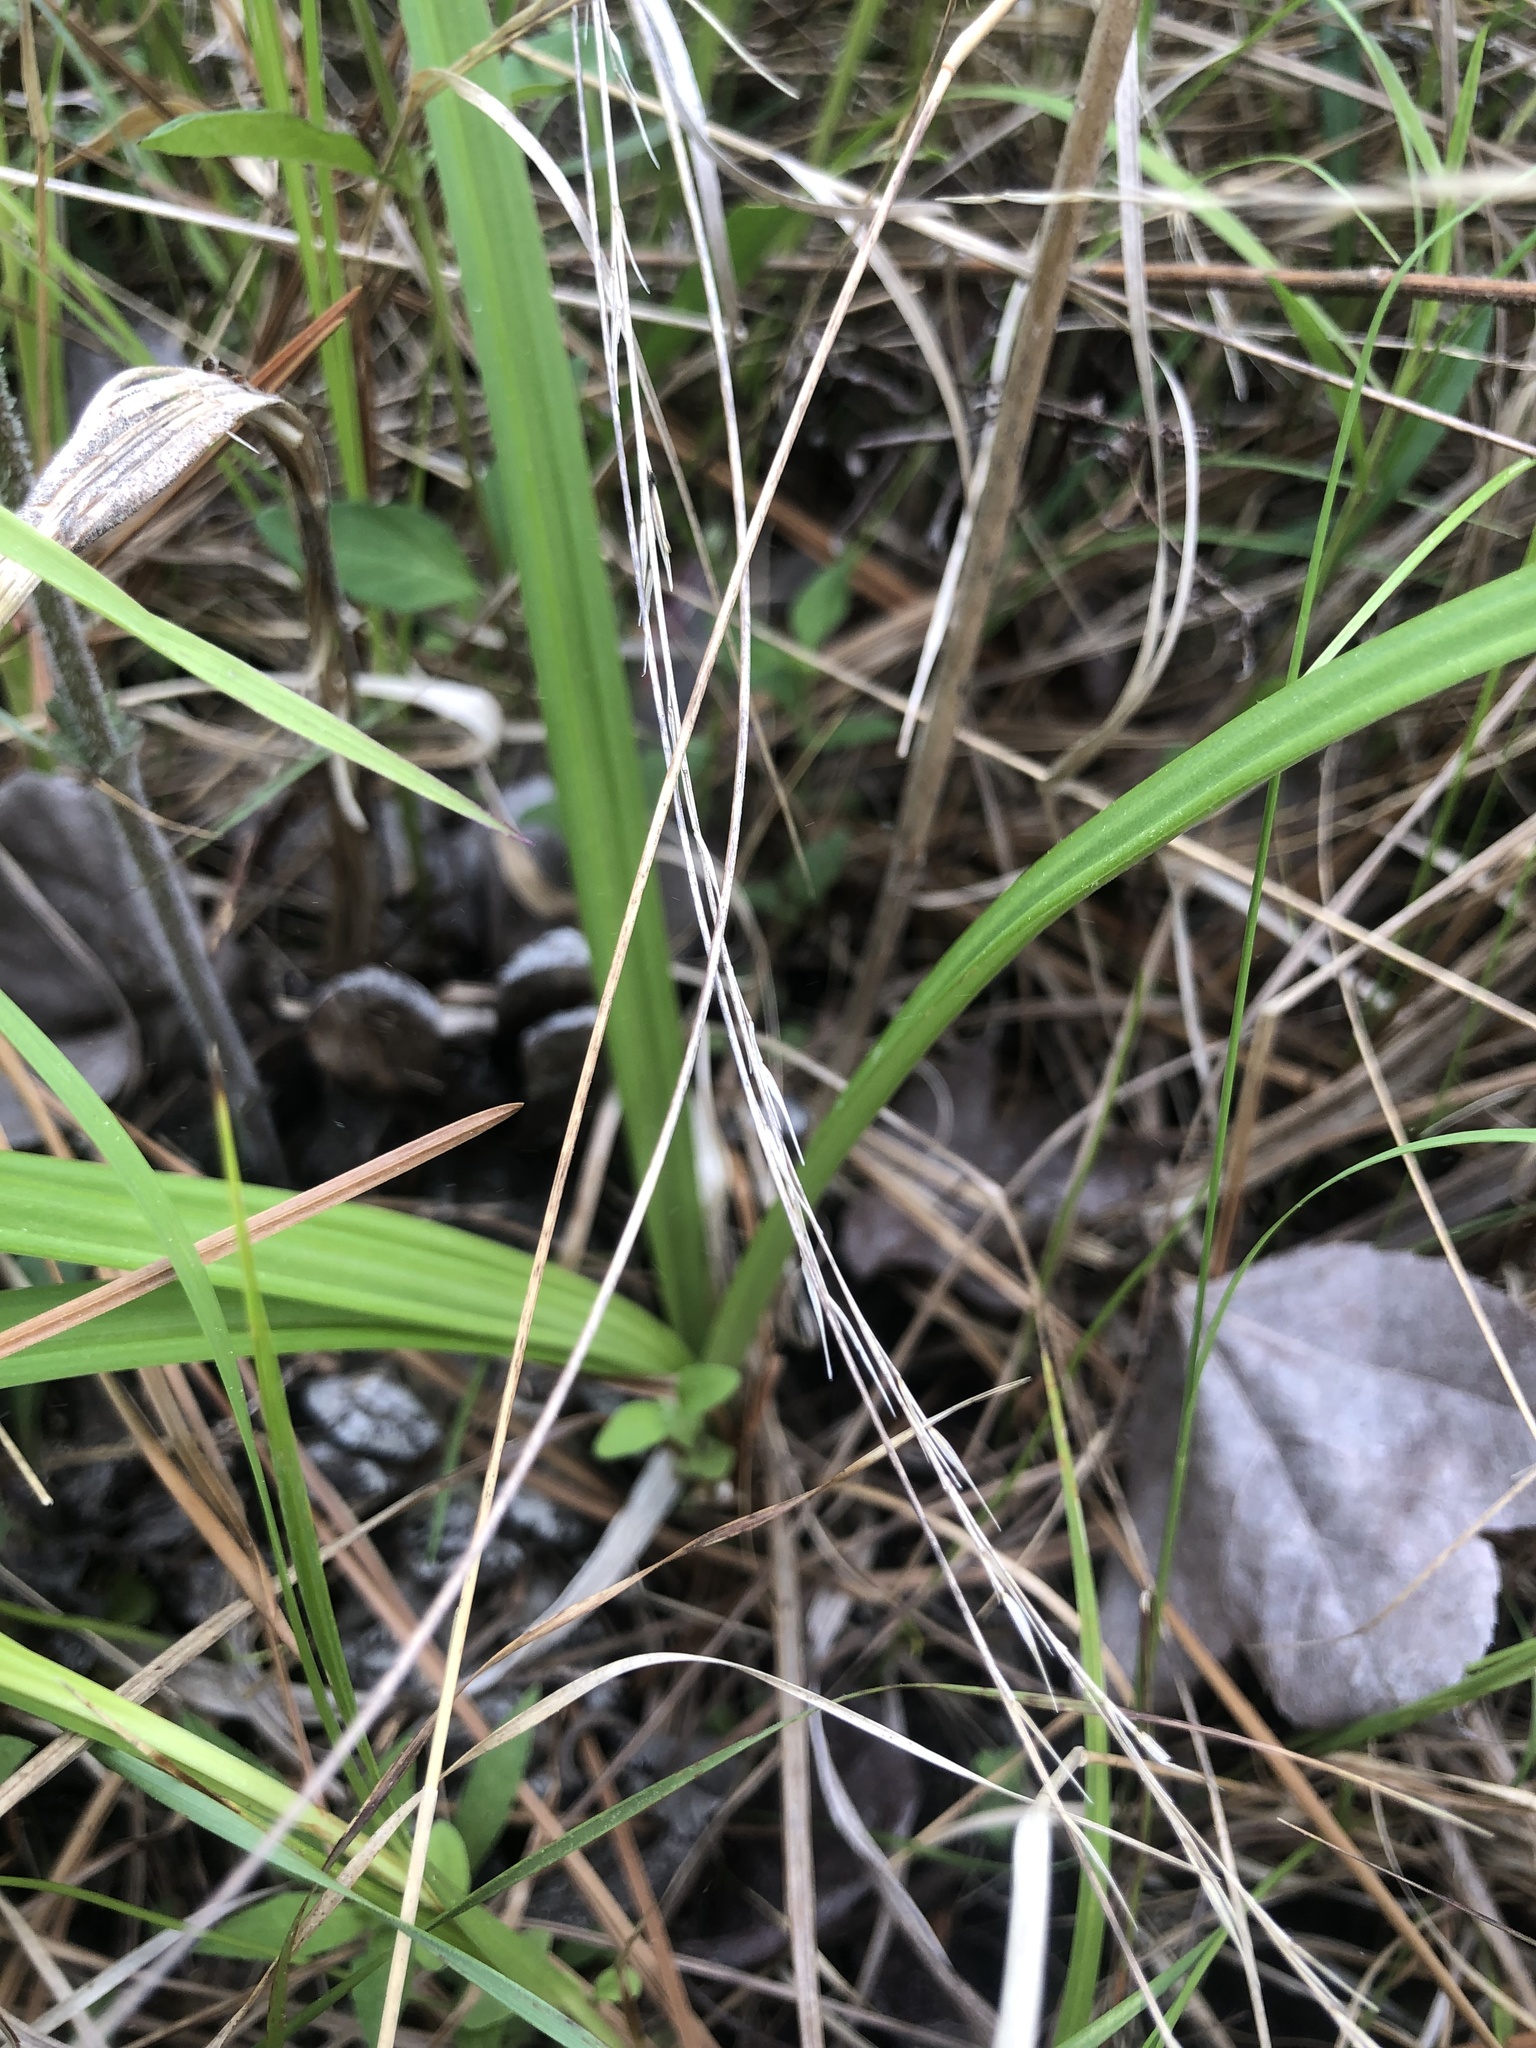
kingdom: Plantae
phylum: Tracheophyta
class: Liliopsida
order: Liliales
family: Melanthiaceae
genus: Melanthium
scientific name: Melanthium virginicum
